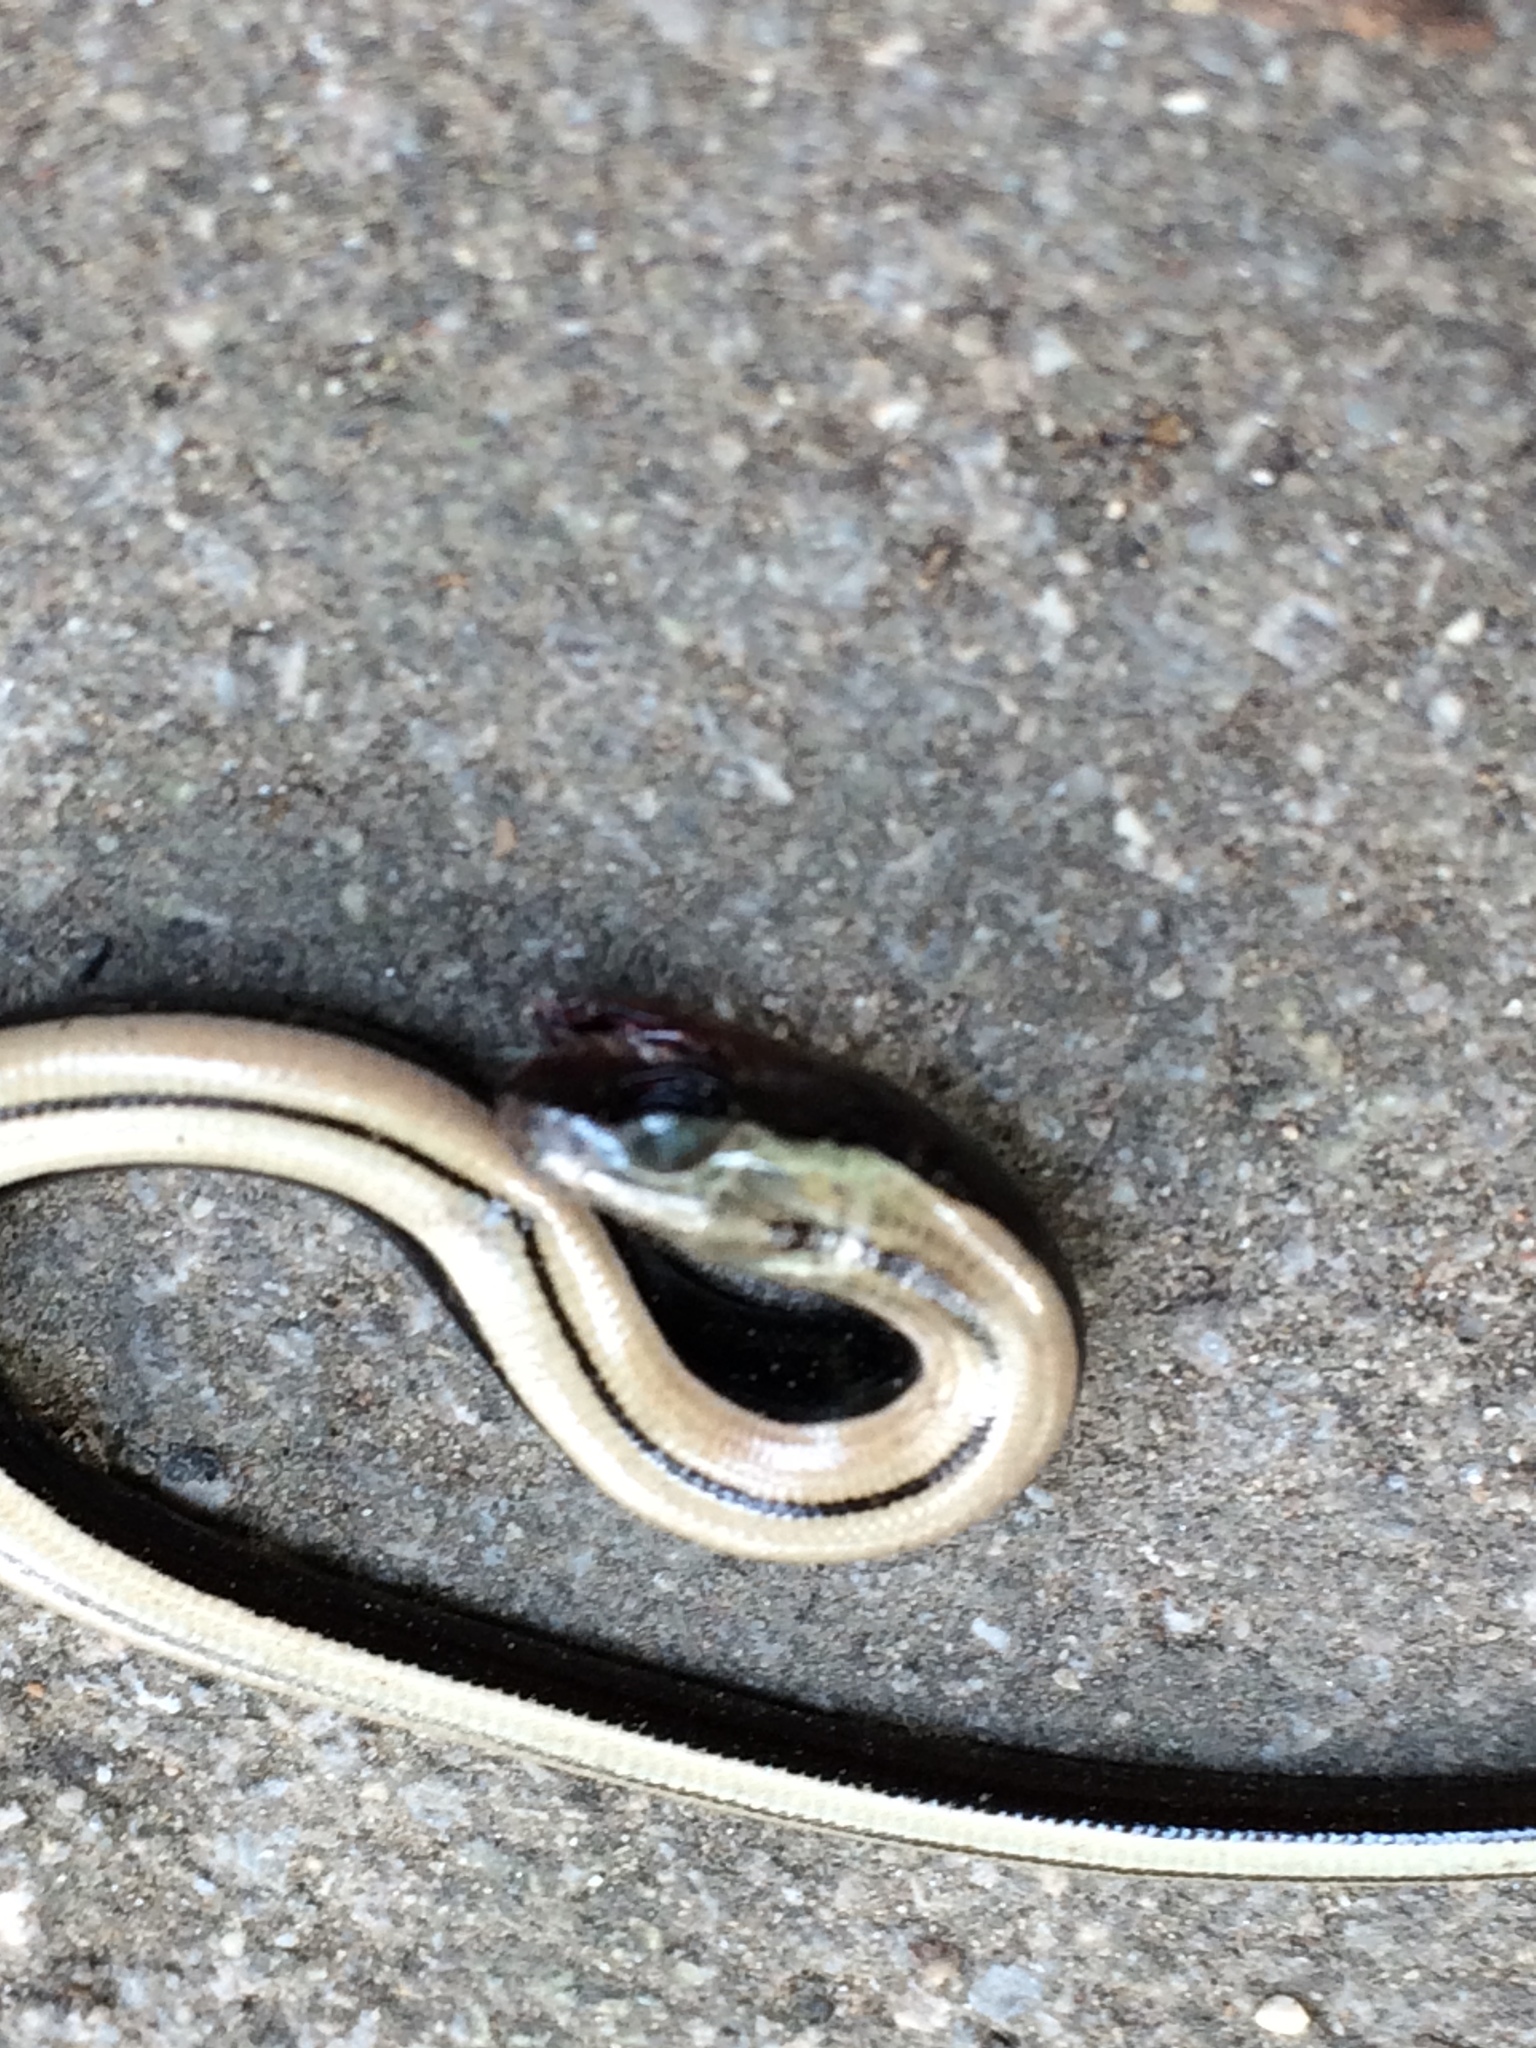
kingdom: Animalia
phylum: Chordata
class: Squamata
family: Anguidae
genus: Anguis
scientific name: Anguis colchica
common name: Slow worm
